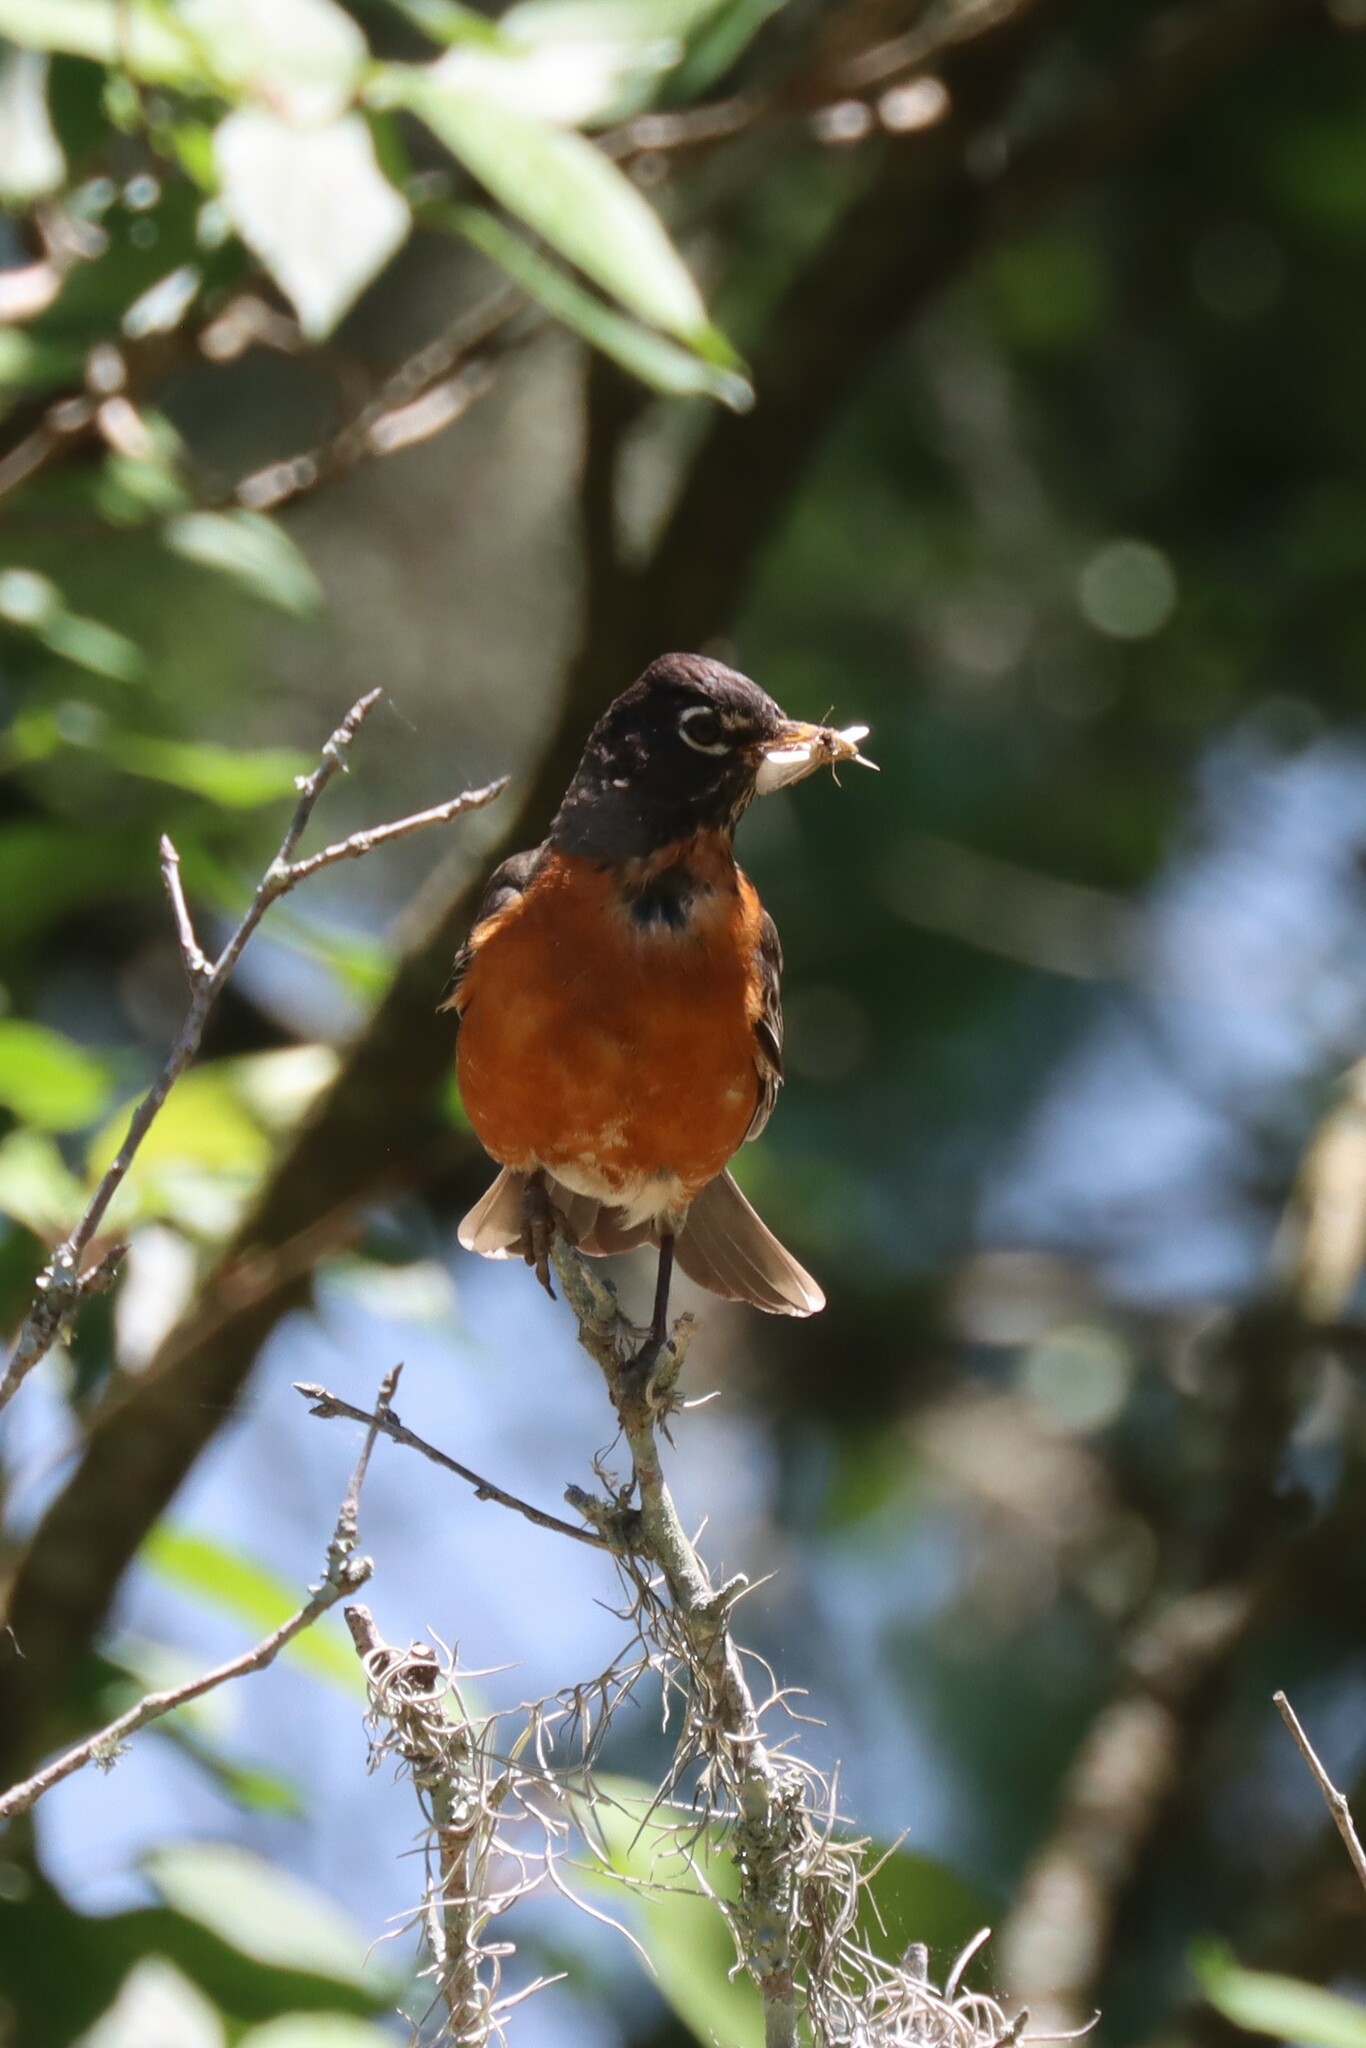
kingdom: Animalia
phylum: Chordata
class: Aves
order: Passeriformes
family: Turdidae
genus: Turdus
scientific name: Turdus migratorius
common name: American robin
